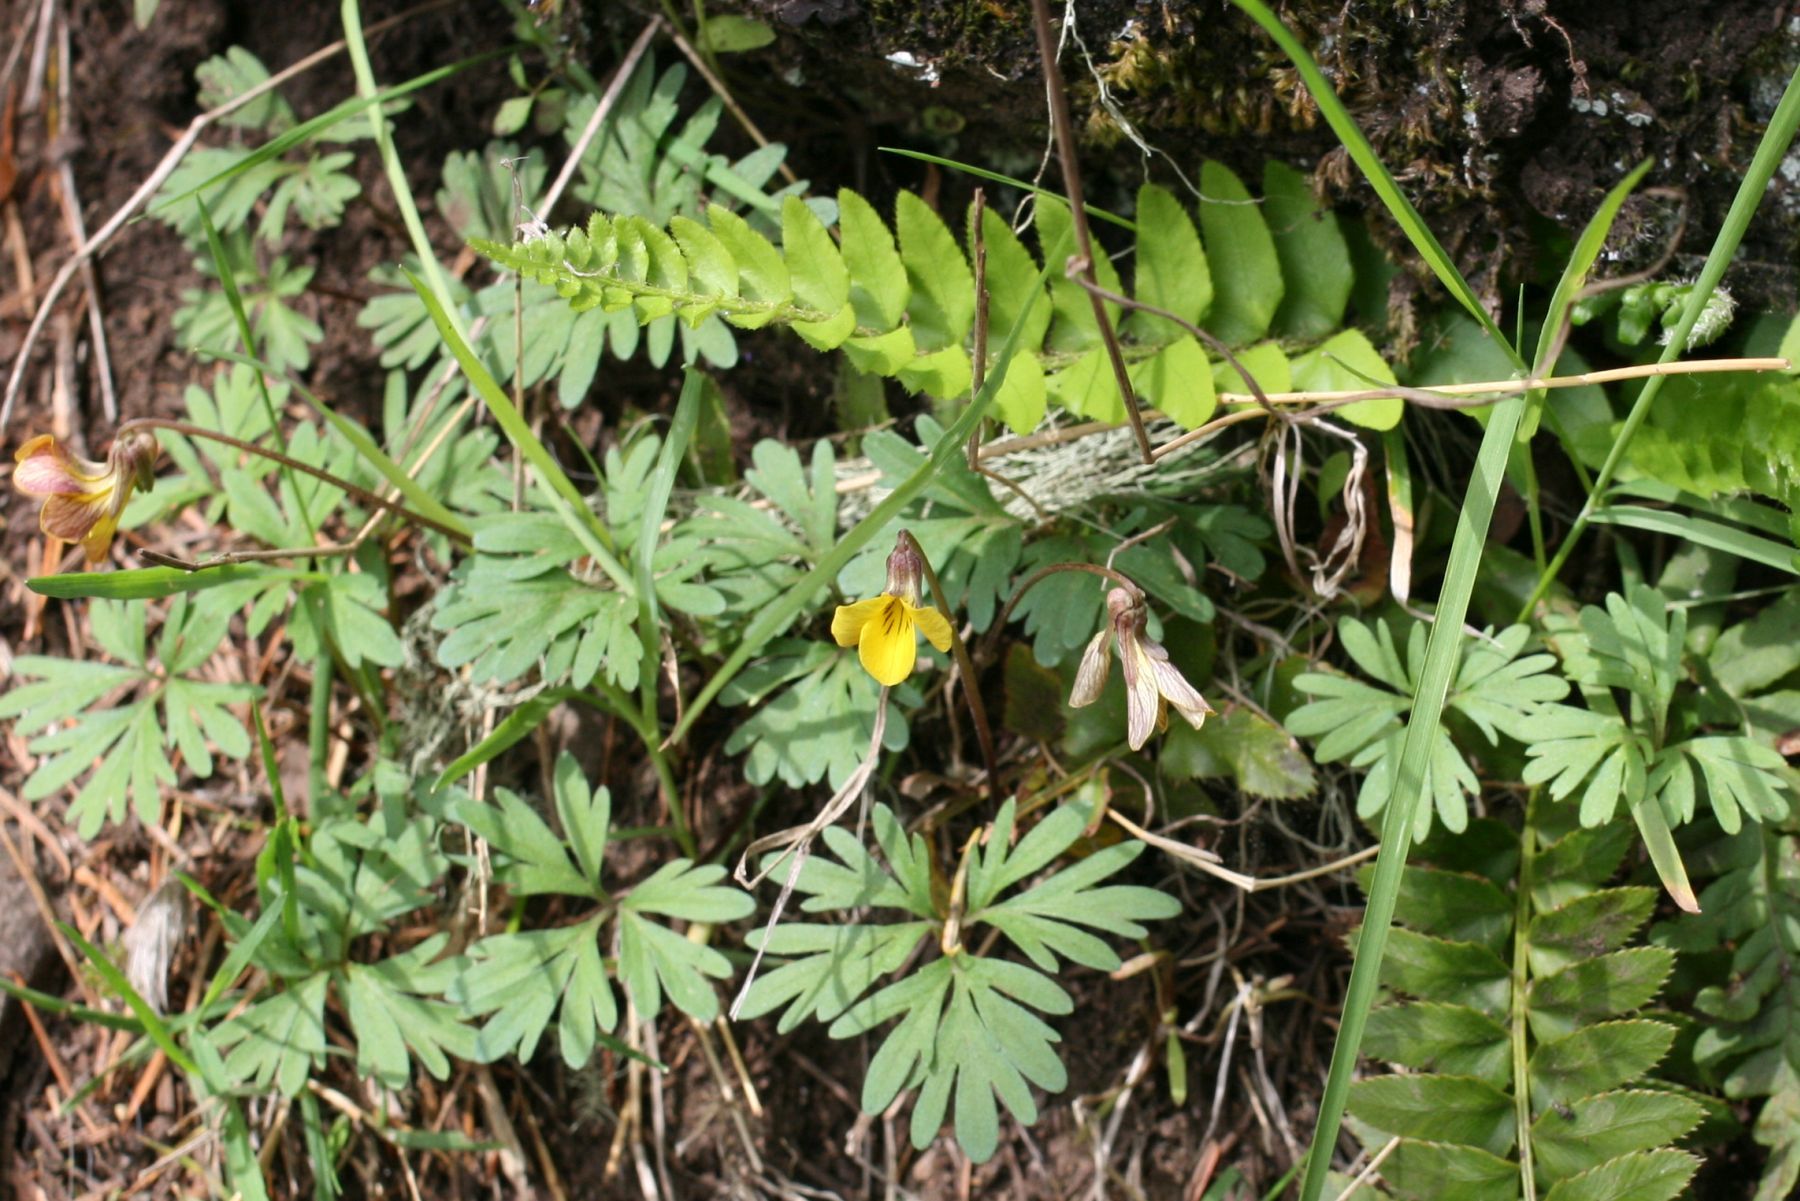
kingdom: Plantae
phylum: Tracheophyta
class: Magnoliopsida
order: Malpighiales
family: Violaceae
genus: Viola
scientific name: Viola sheltonii
